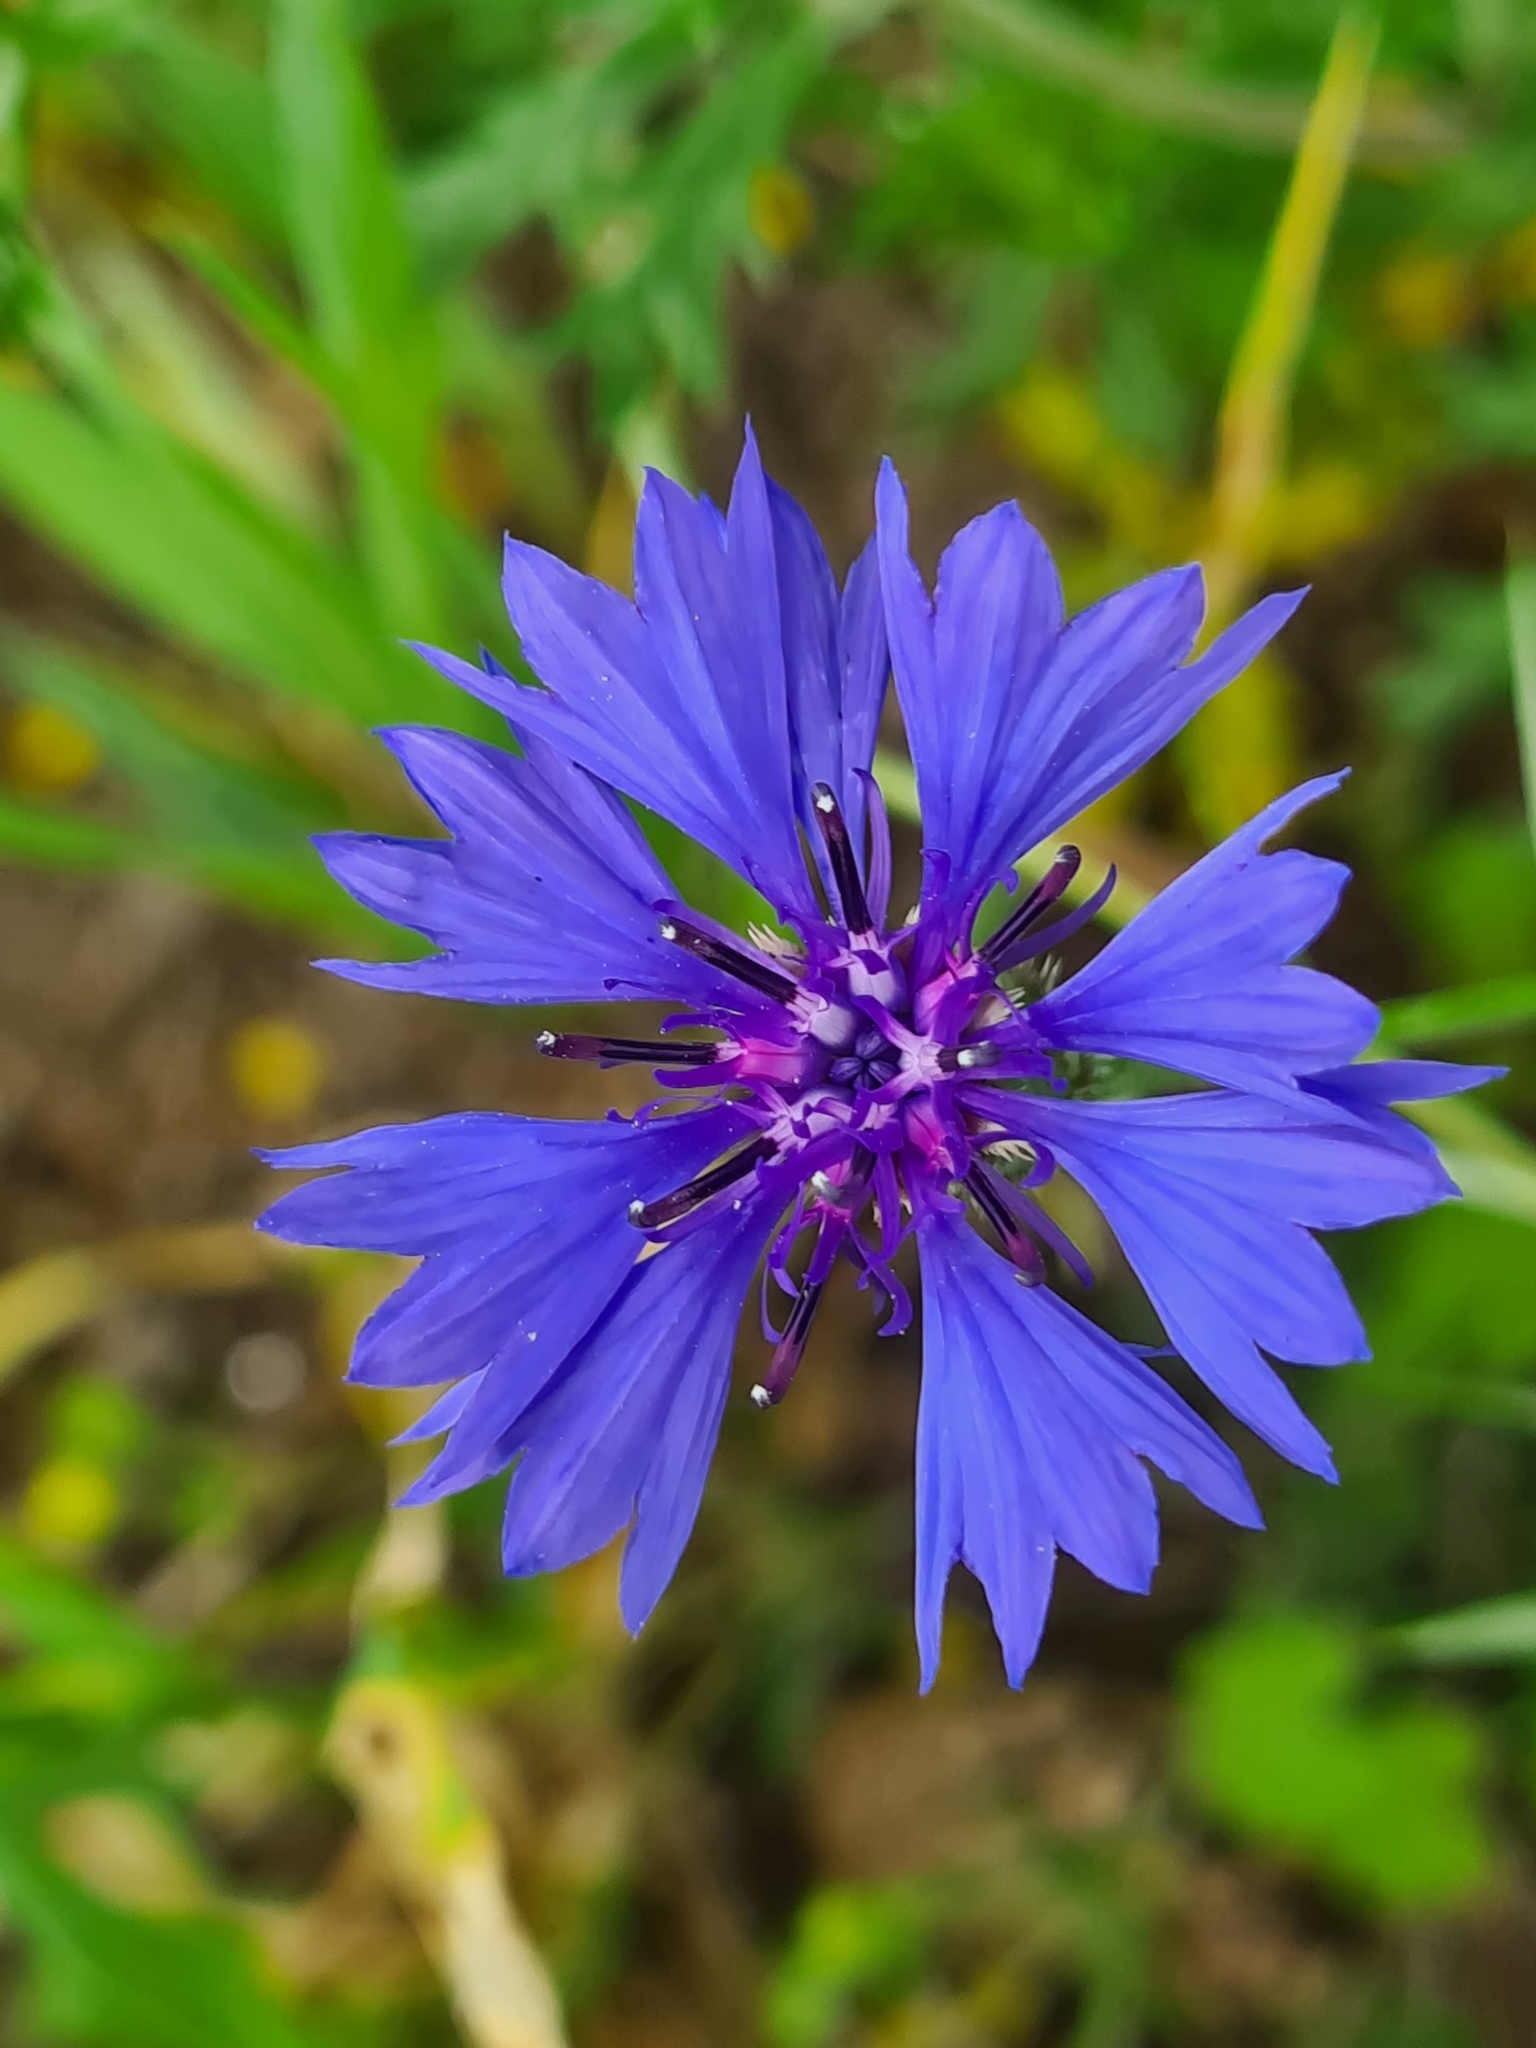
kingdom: Plantae
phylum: Tracheophyta
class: Magnoliopsida
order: Asterales
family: Asteraceae
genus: Centaurea
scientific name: Centaurea cyanus
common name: Cornflower
